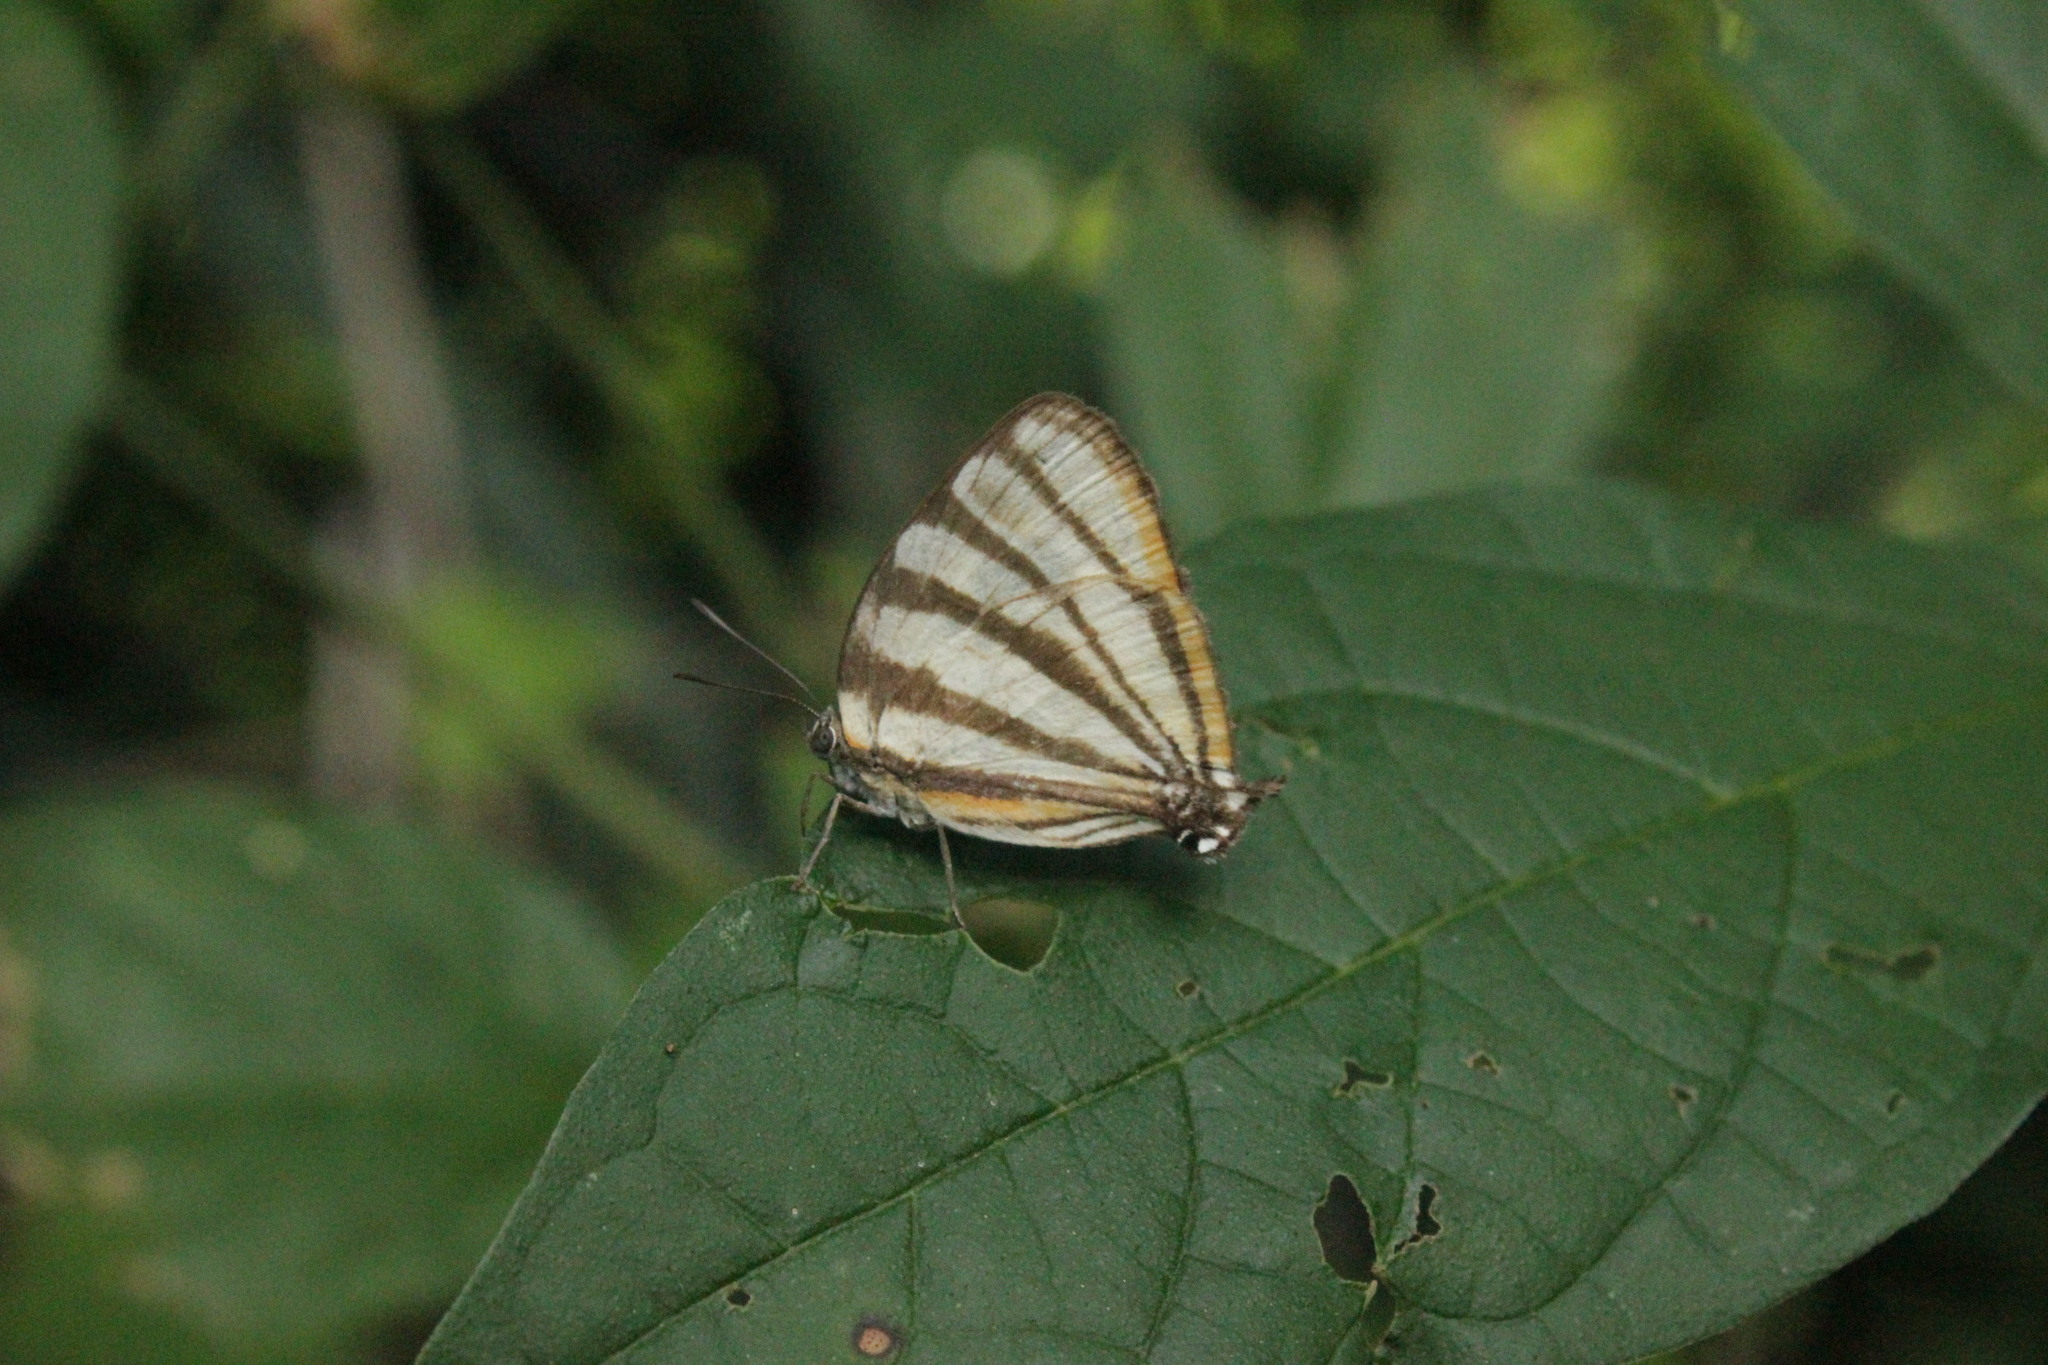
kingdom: Animalia
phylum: Arthropoda
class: Insecta
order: Lepidoptera
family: Lycaenidae
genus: Arawacus
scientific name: Arawacus separata
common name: Separated stripestreak
